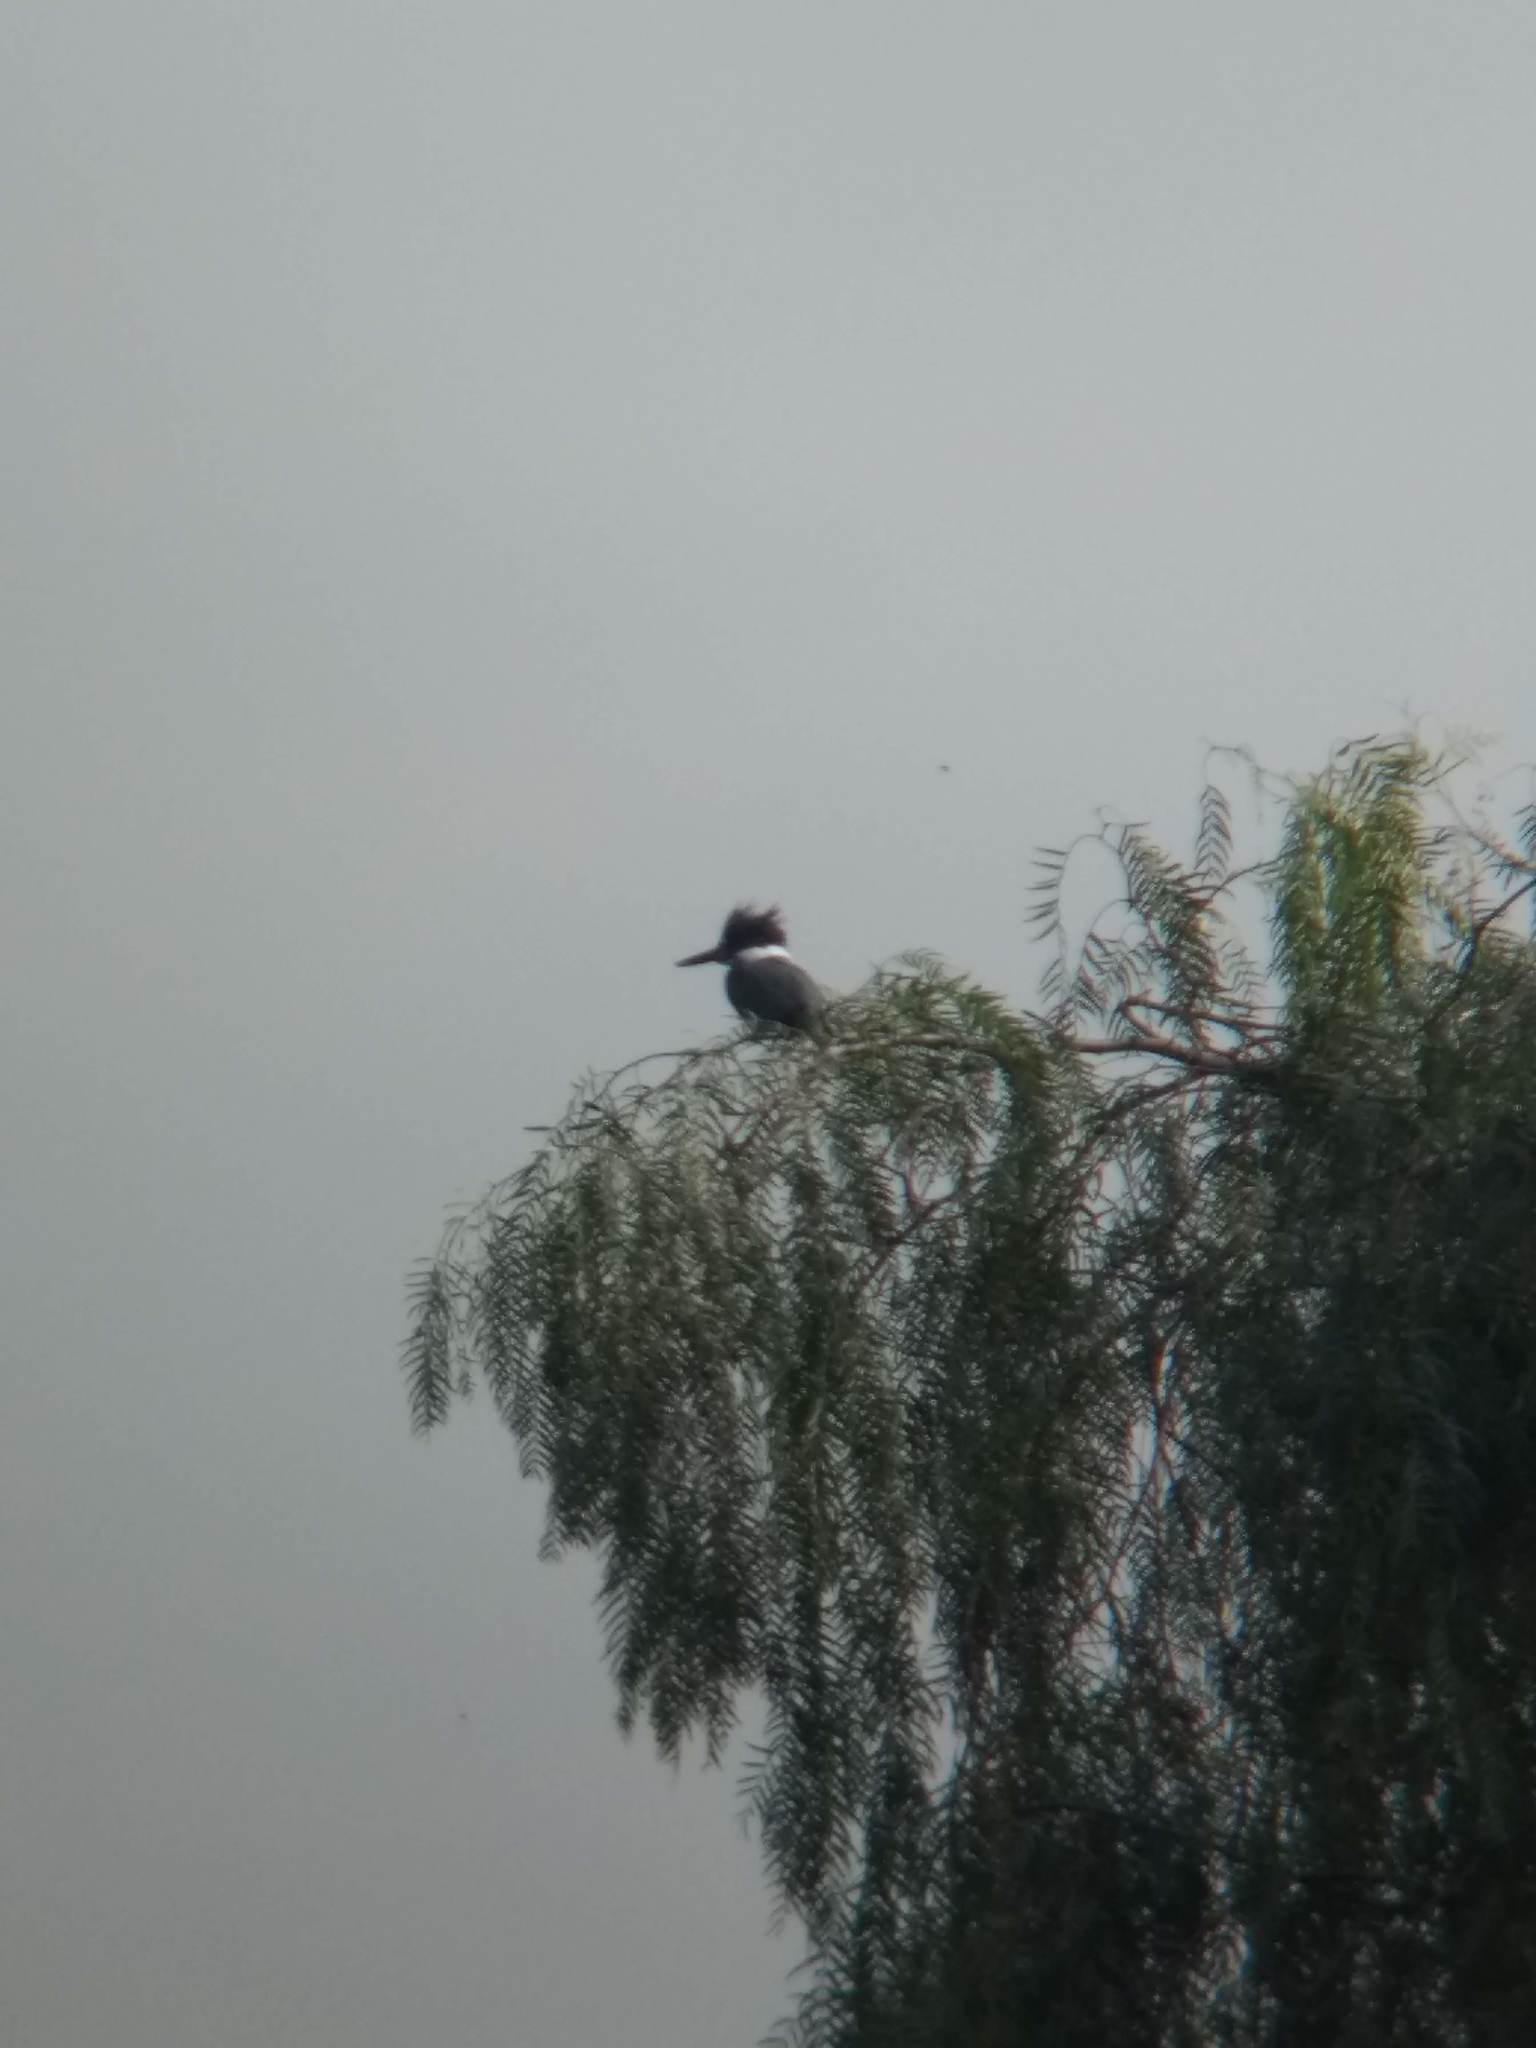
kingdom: Animalia
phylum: Chordata
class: Aves
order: Coraciiformes
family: Alcedinidae
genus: Megaceryle
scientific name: Megaceryle alcyon
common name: Belted kingfisher
